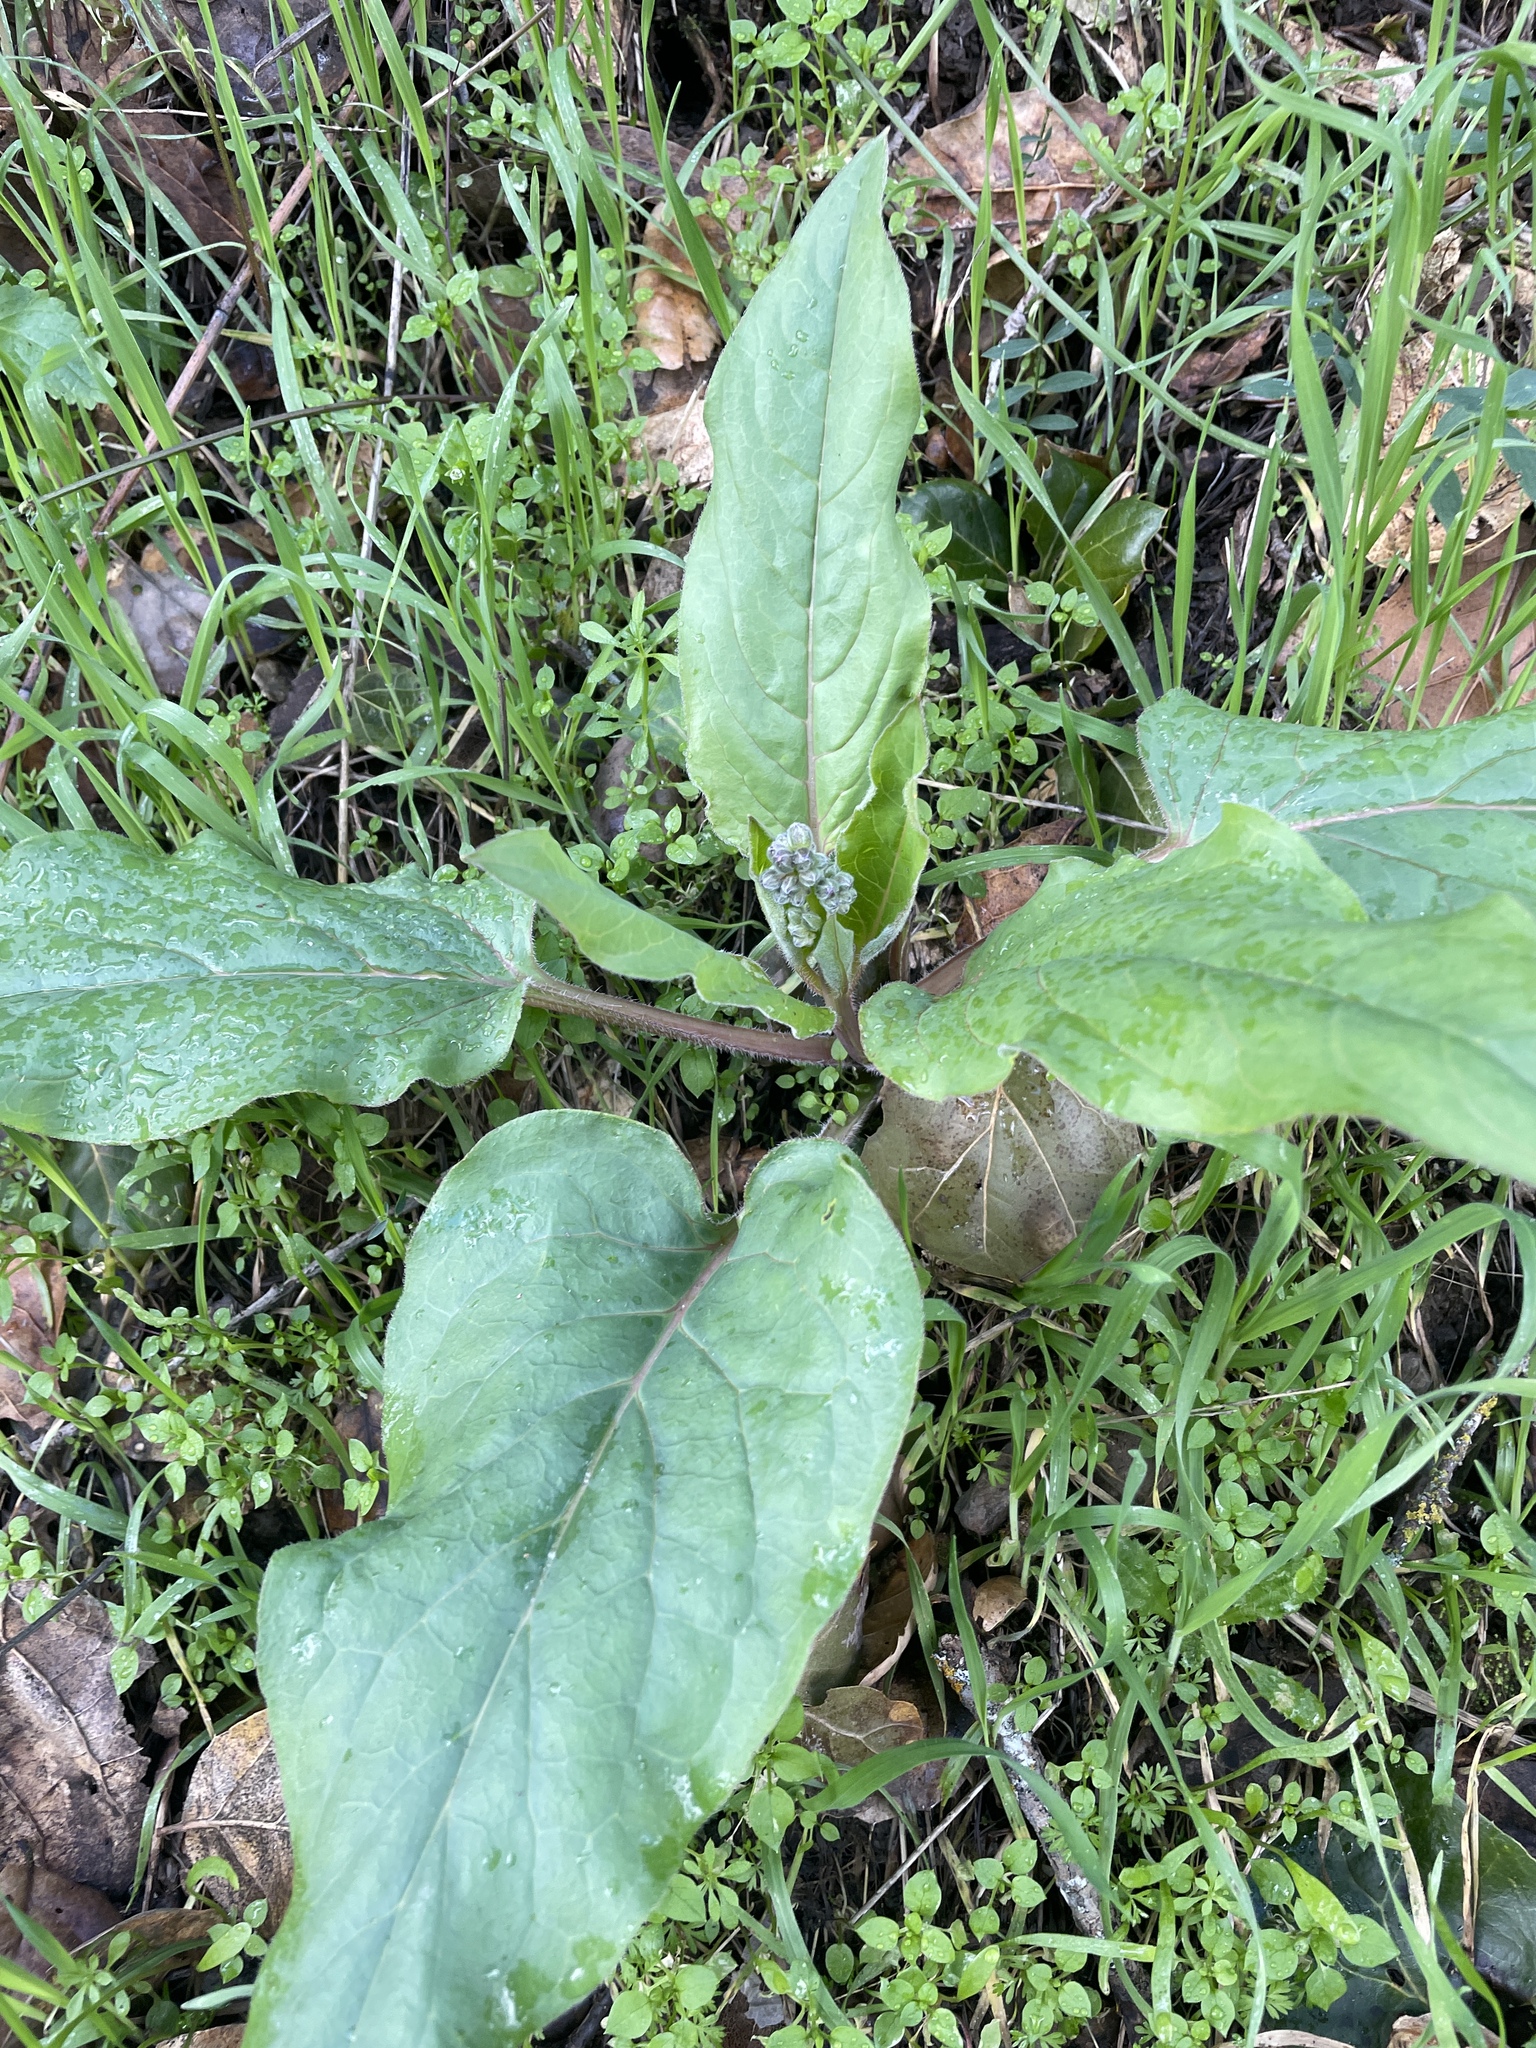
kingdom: Plantae
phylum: Tracheophyta
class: Magnoliopsida
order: Boraginales
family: Boraginaceae
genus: Adelinia
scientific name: Adelinia grande
